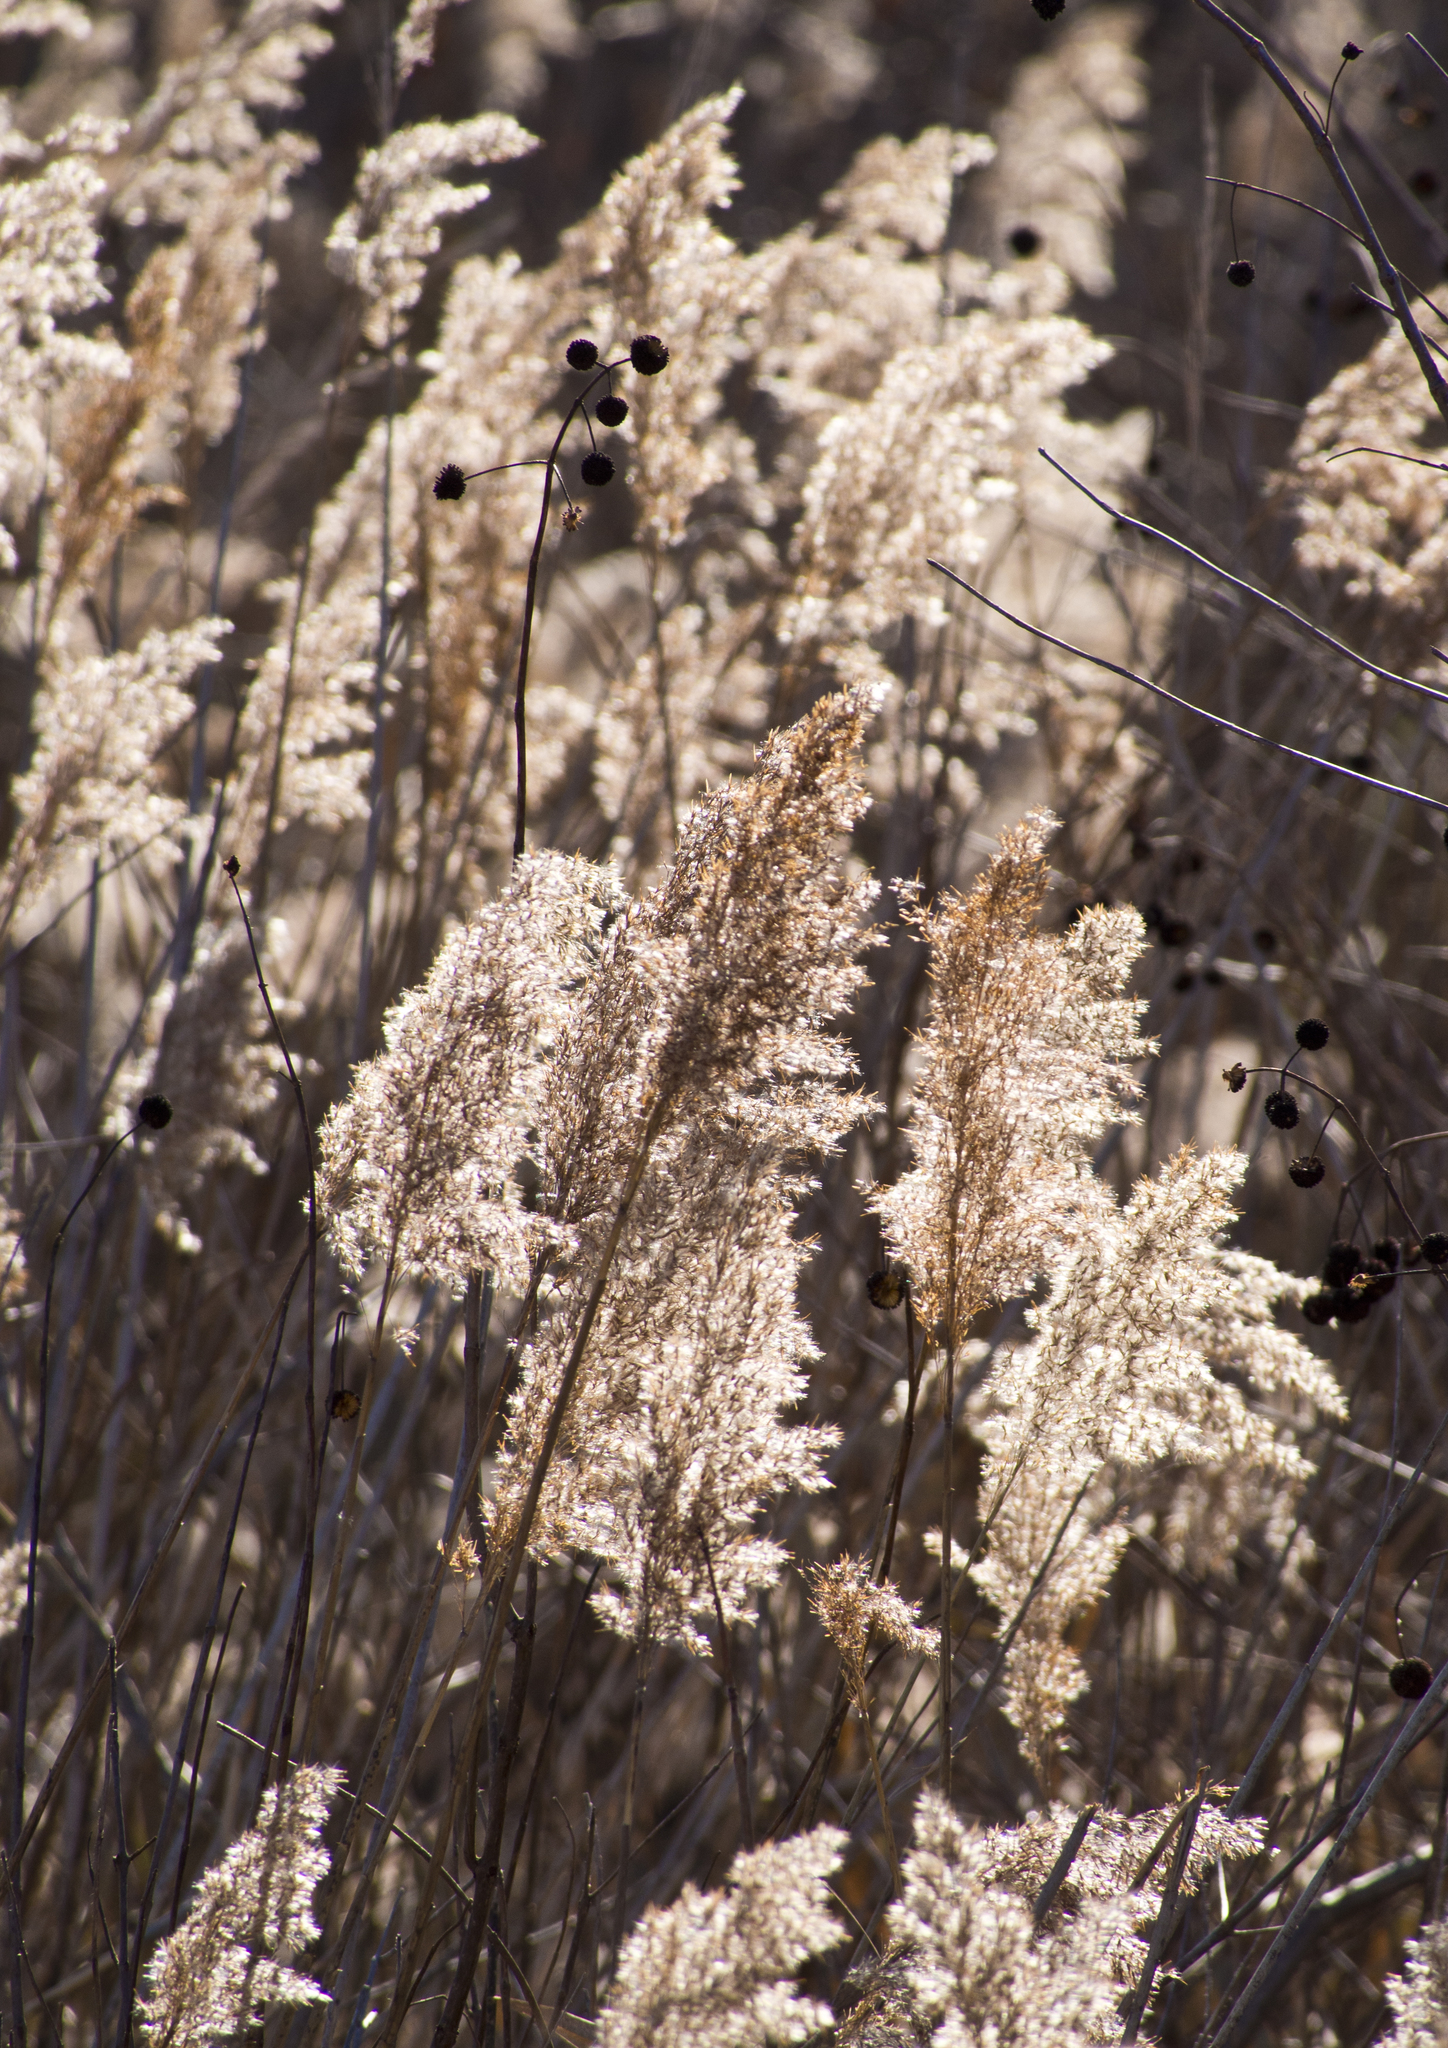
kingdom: Plantae
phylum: Tracheophyta
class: Liliopsida
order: Poales
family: Poaceae
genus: Phragmites
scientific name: Phragmites australis
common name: Common reed
